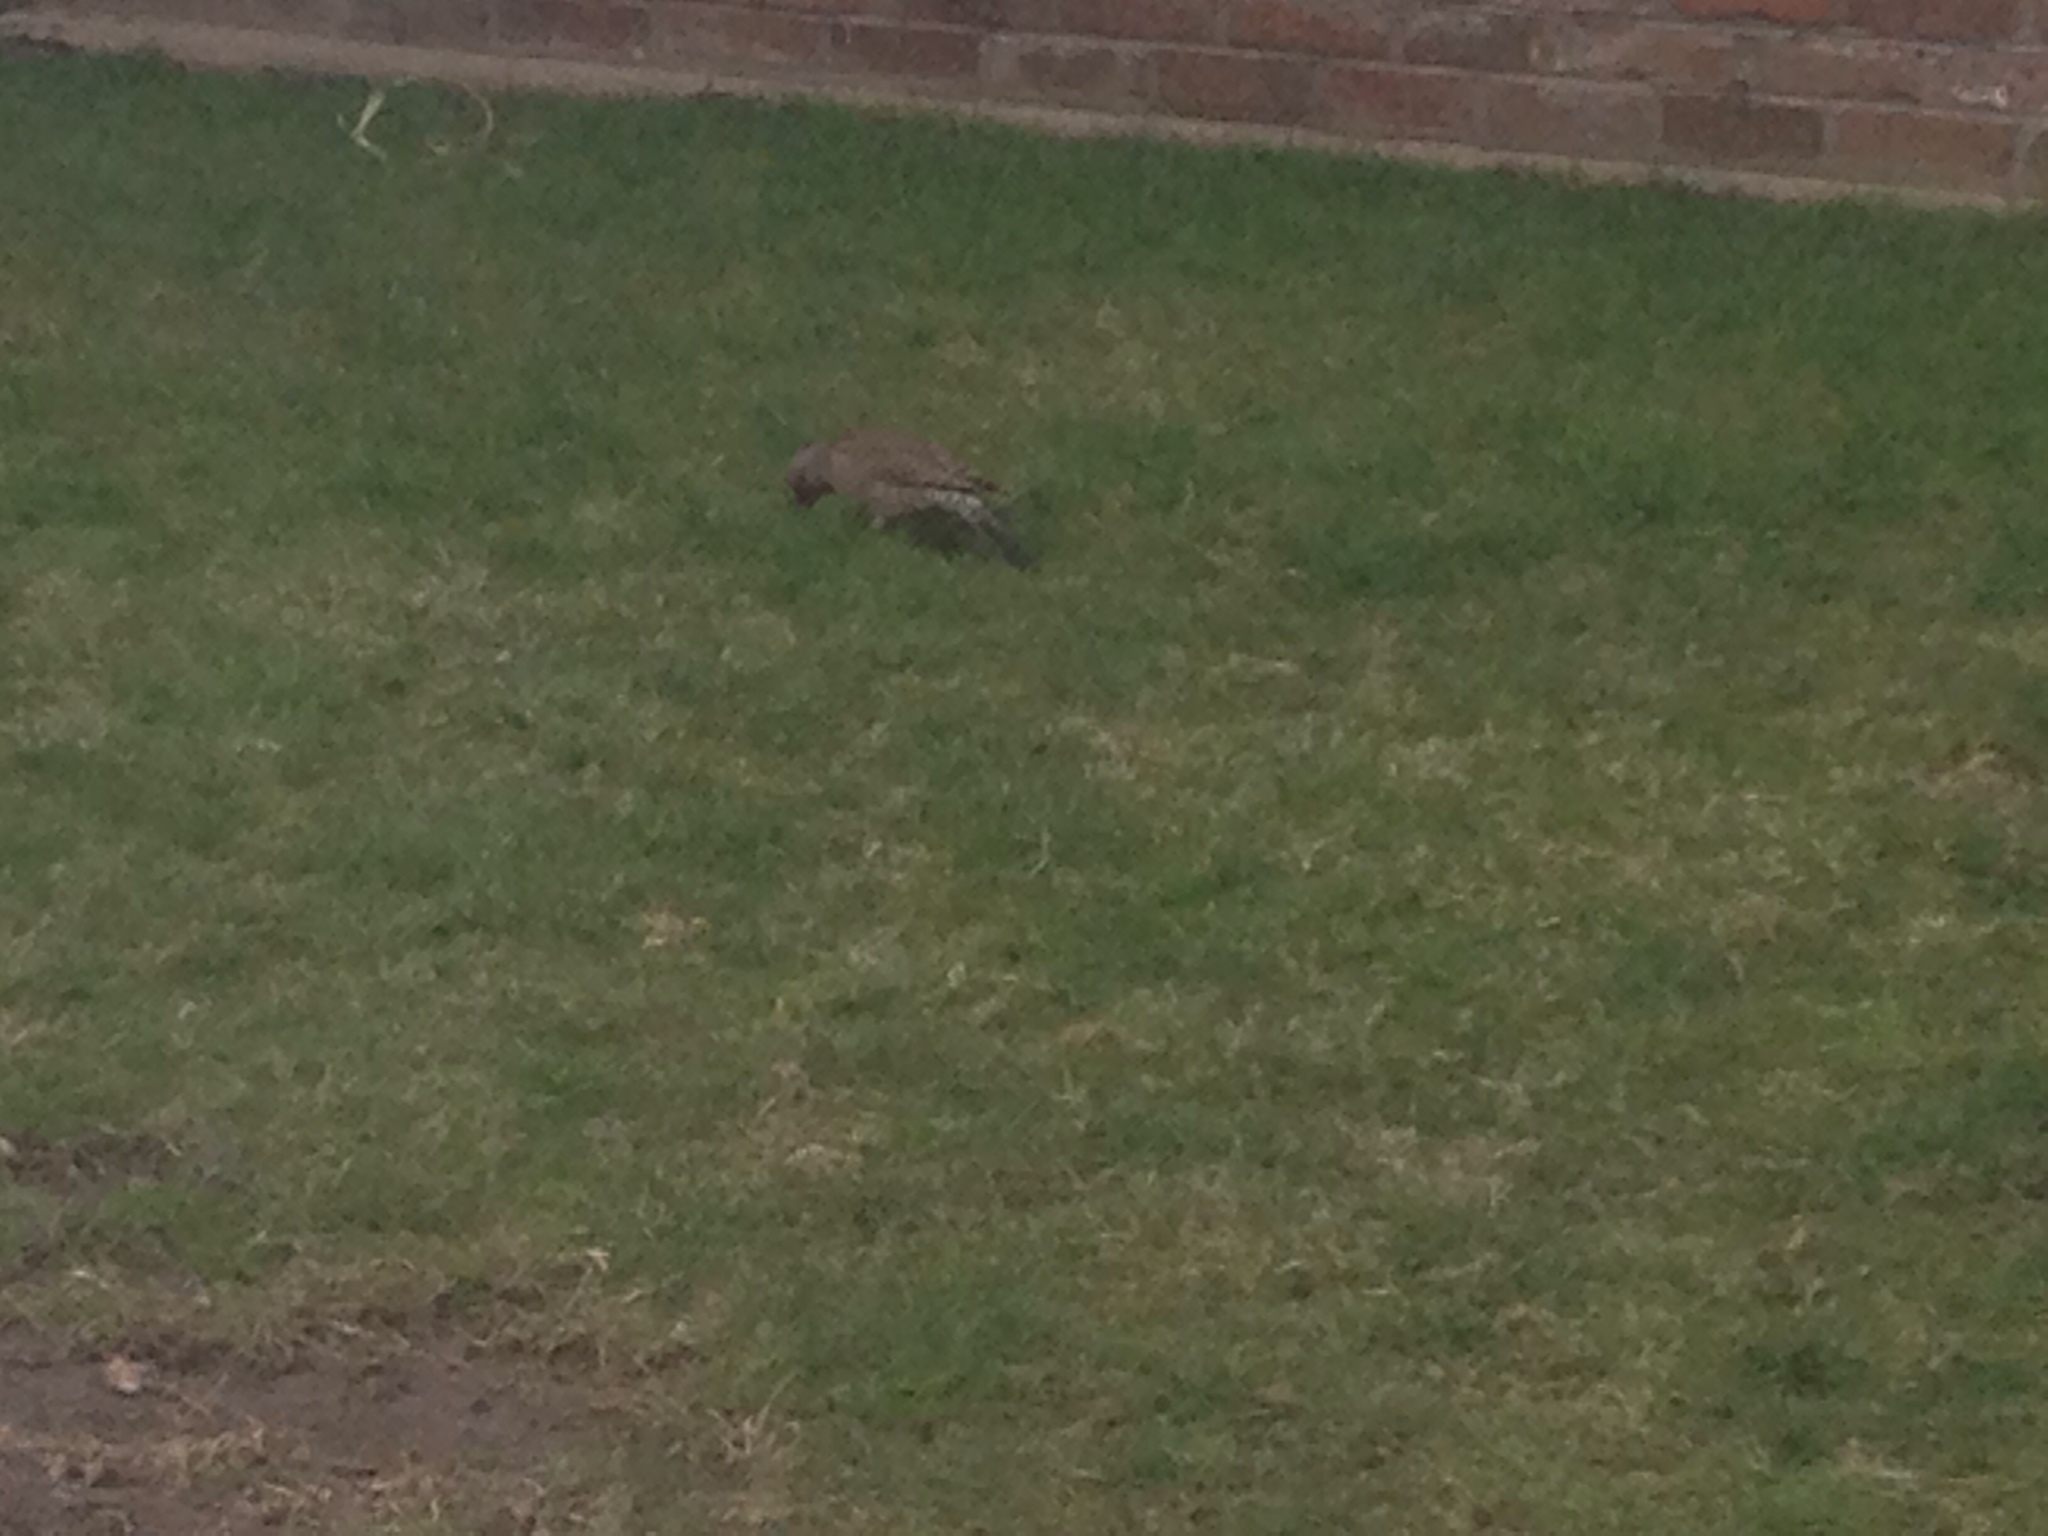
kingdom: Animalia
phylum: Chordata
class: Aves
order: Piciformes
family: Picidae
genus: Colaptes
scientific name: Colaptes auratus
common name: Northern flicker
